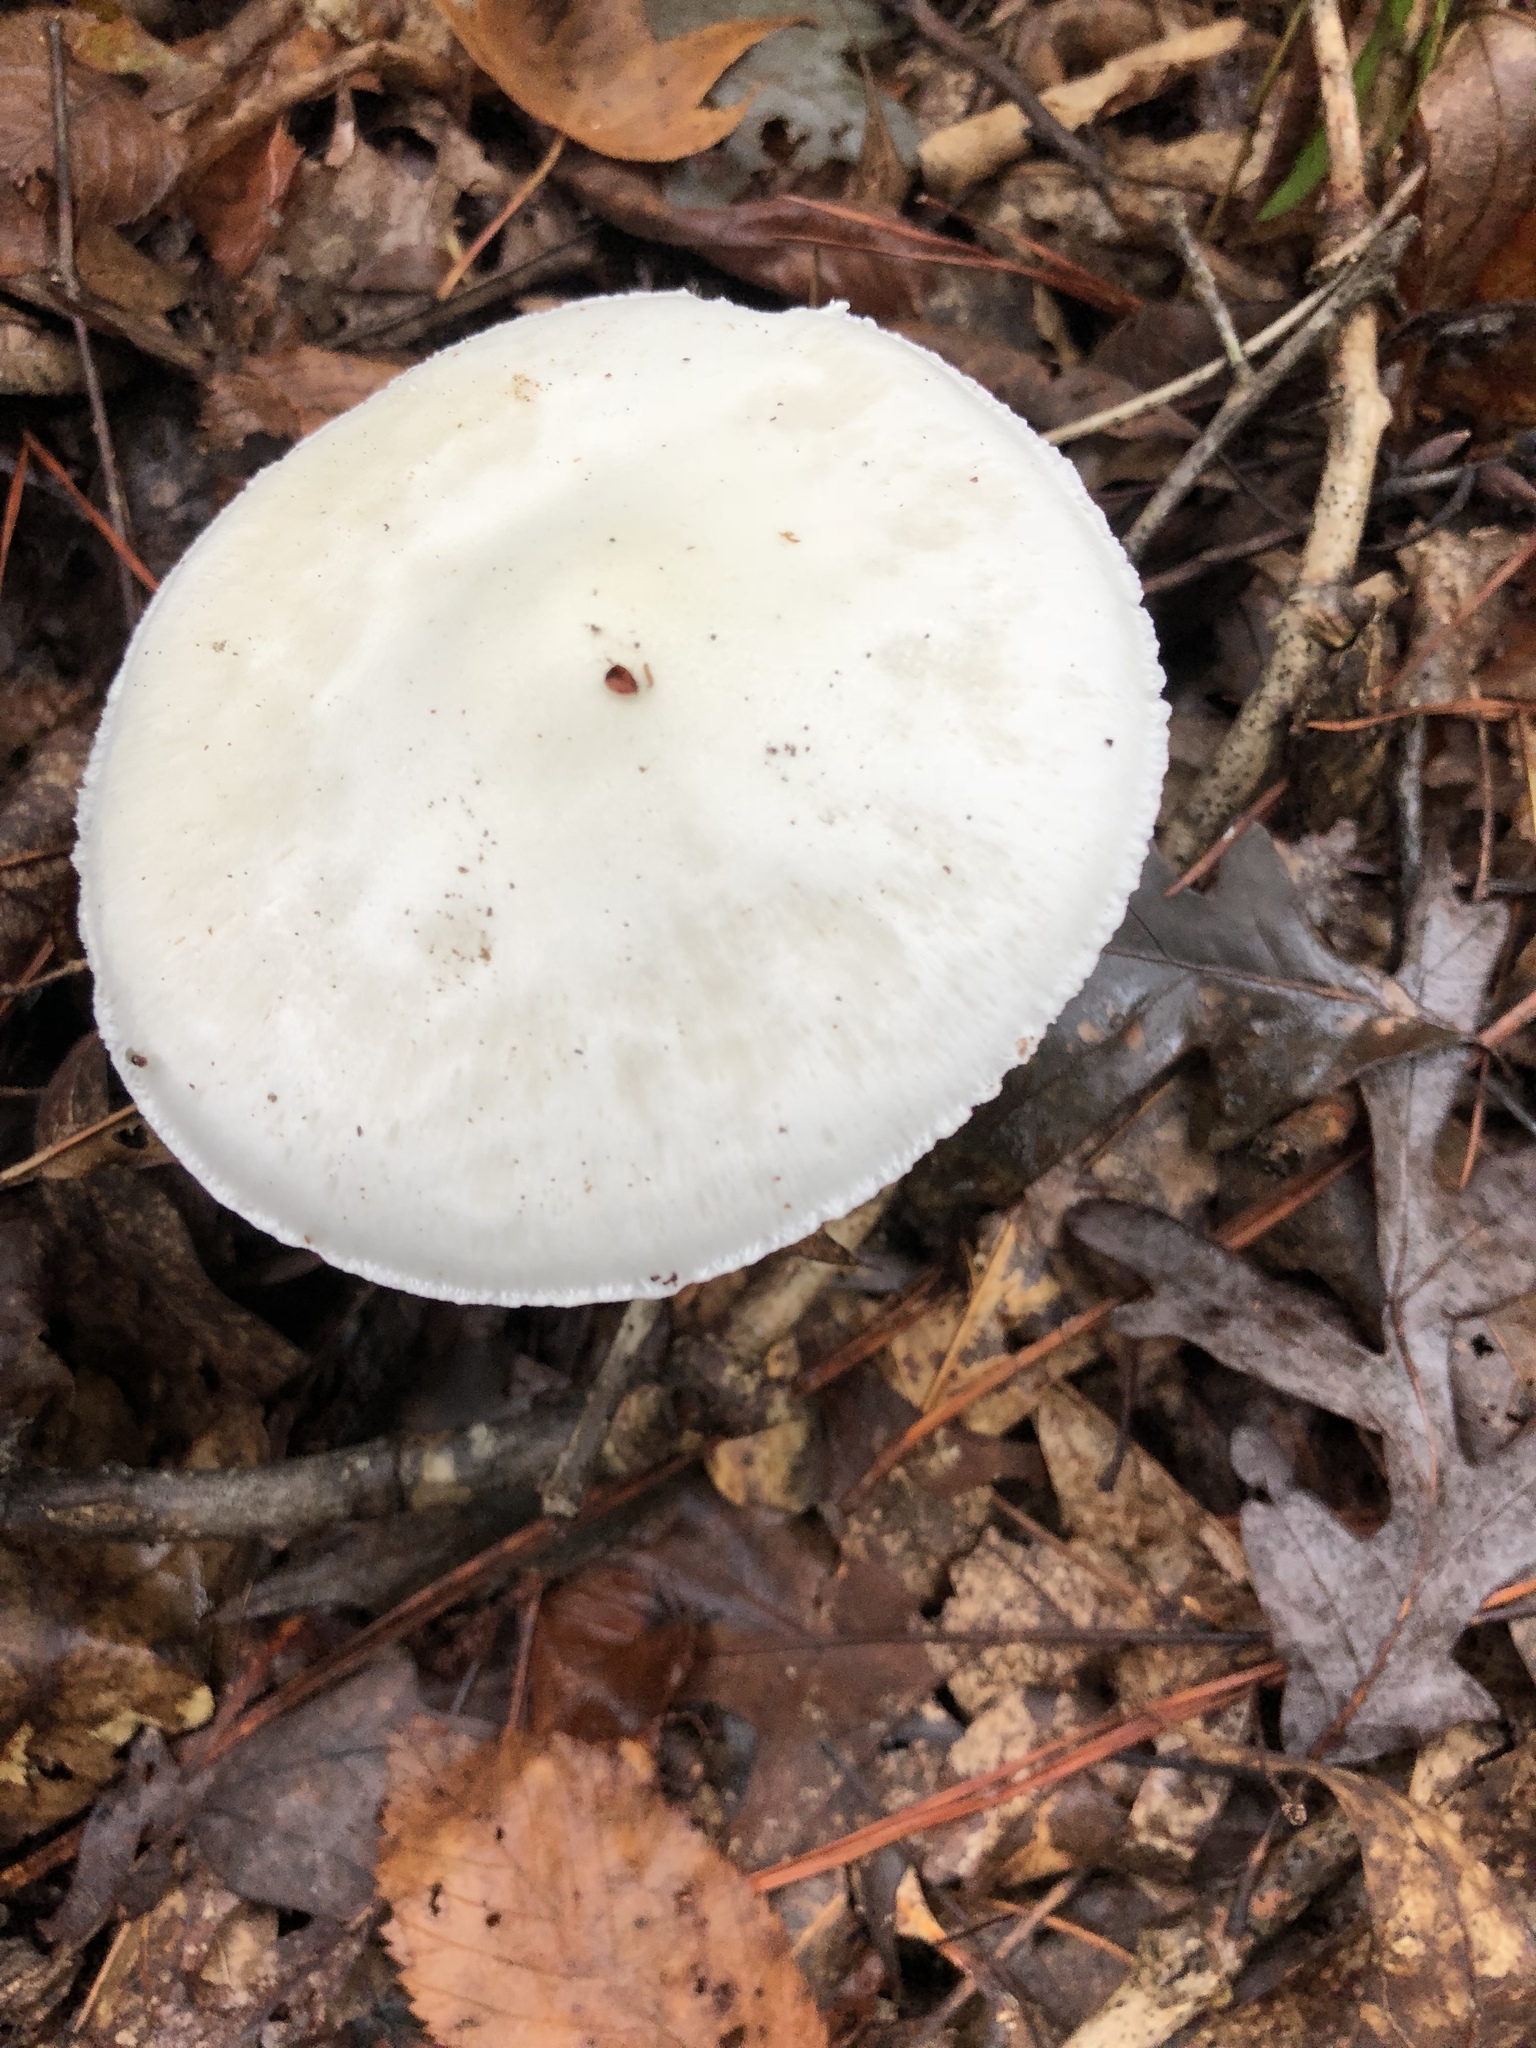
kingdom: Fungi
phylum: Basidiomycota
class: Agaricomycetes
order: Agaricales
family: Amanitaceae
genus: Amanita
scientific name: Amanita bisporigera
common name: Eastern north american destroying angel
